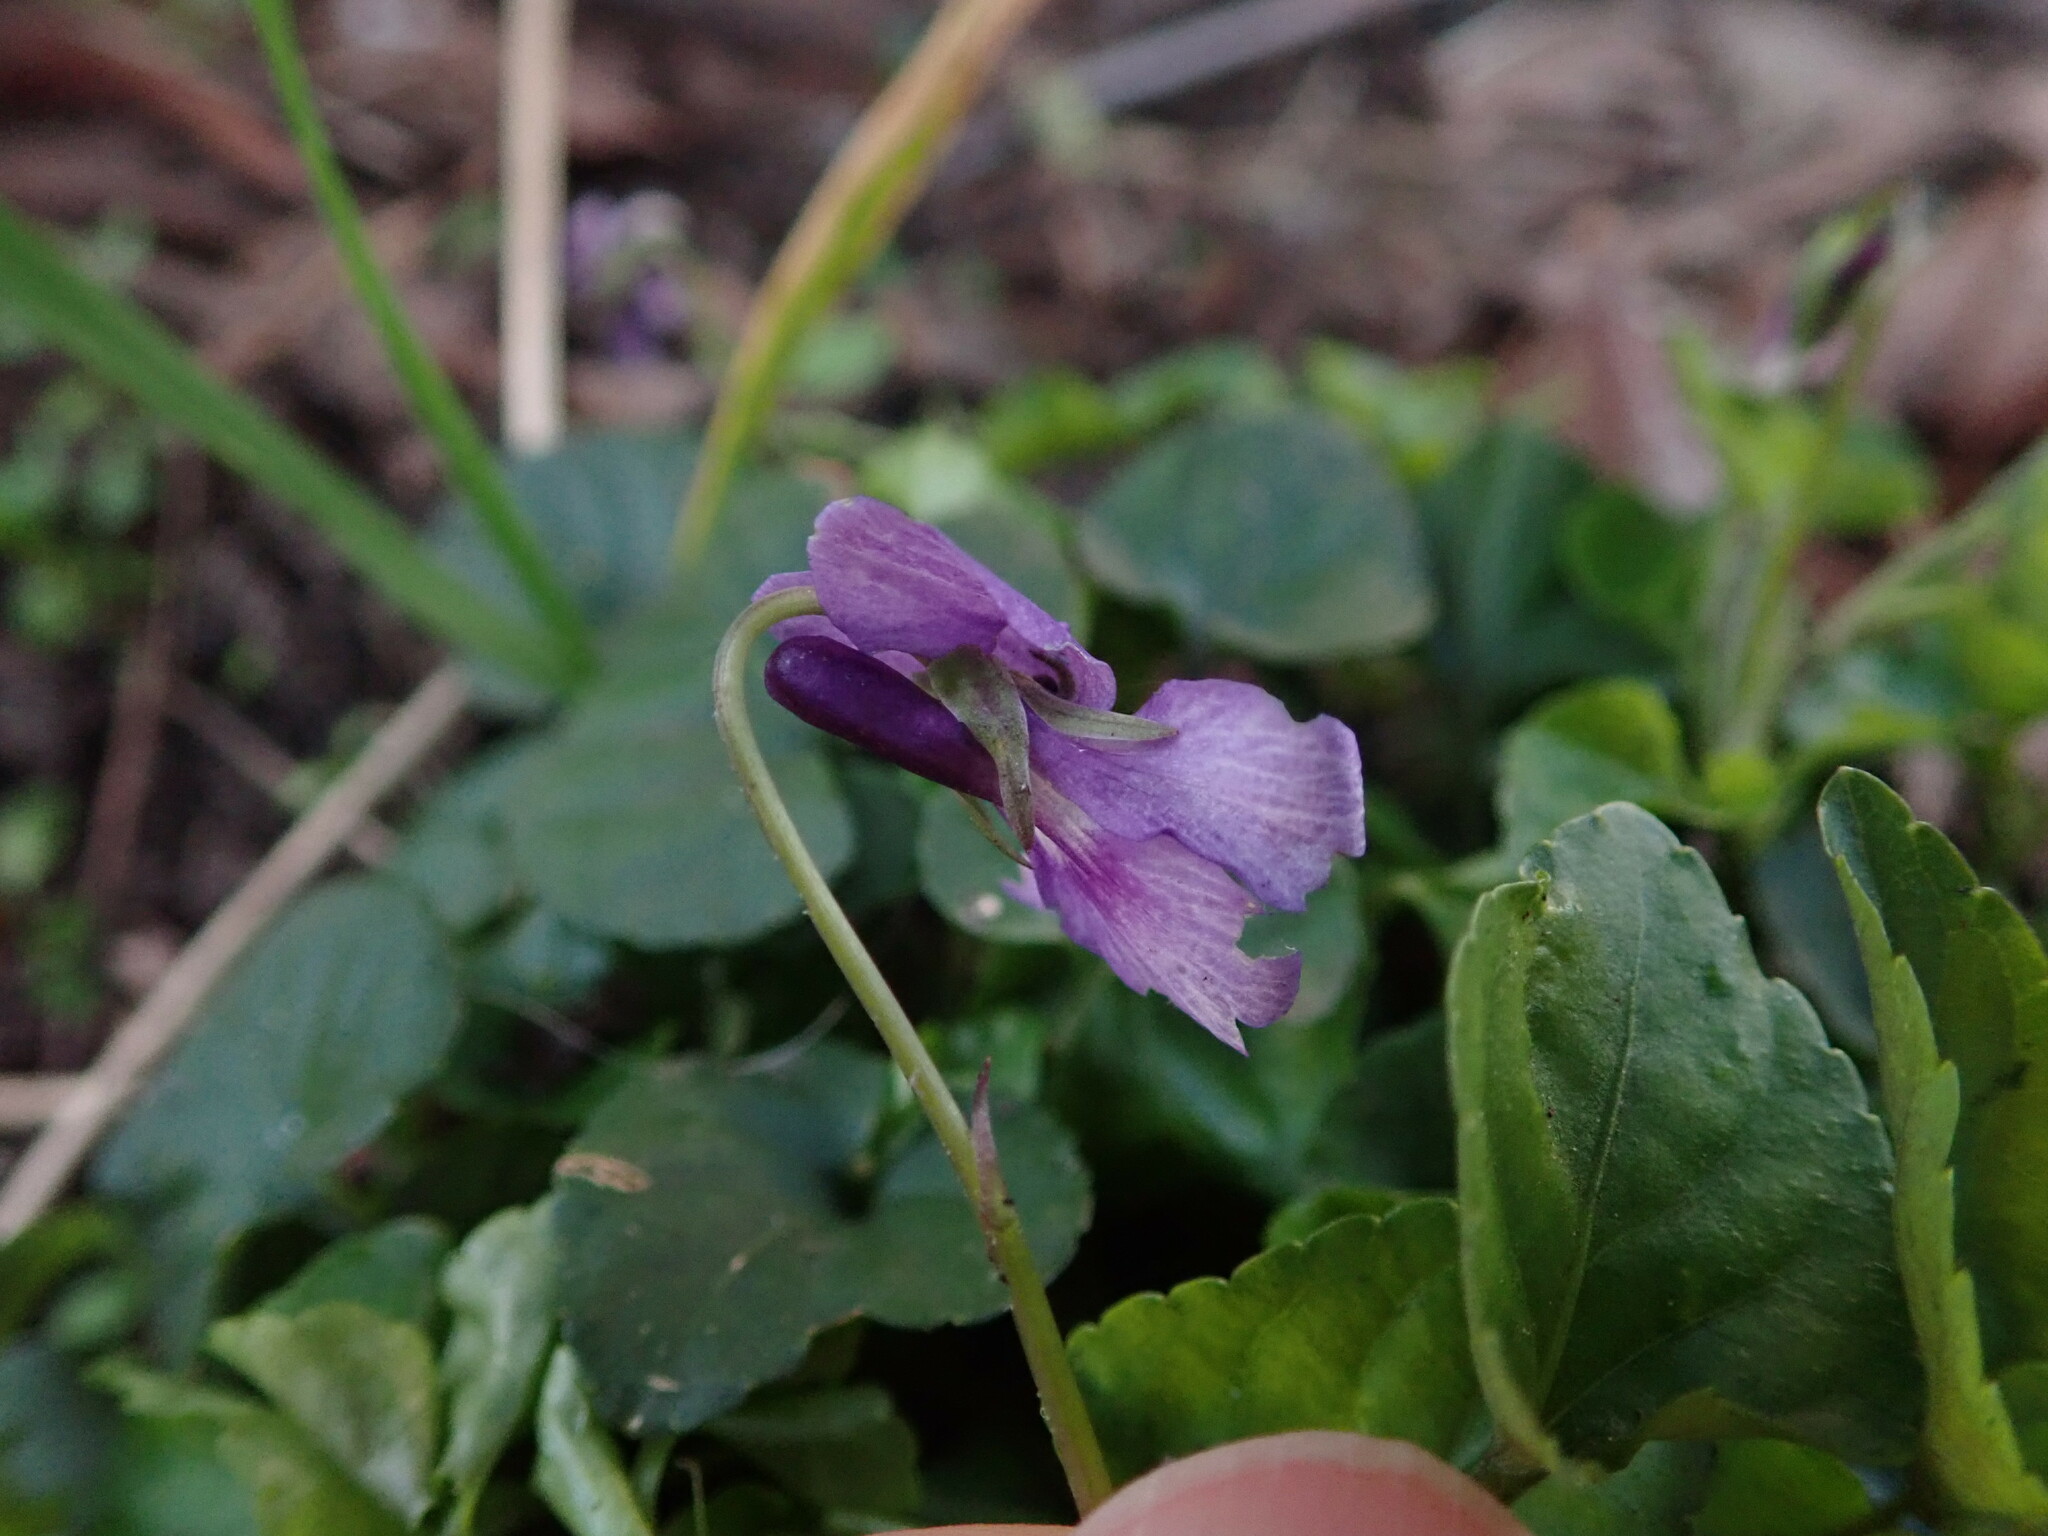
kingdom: Plantae
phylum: Tracheophyta
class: Magnoliopsida
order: Malpighiales
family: Violaceae
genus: Viola
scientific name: Viola reichenbachiana
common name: Early dog-violet
